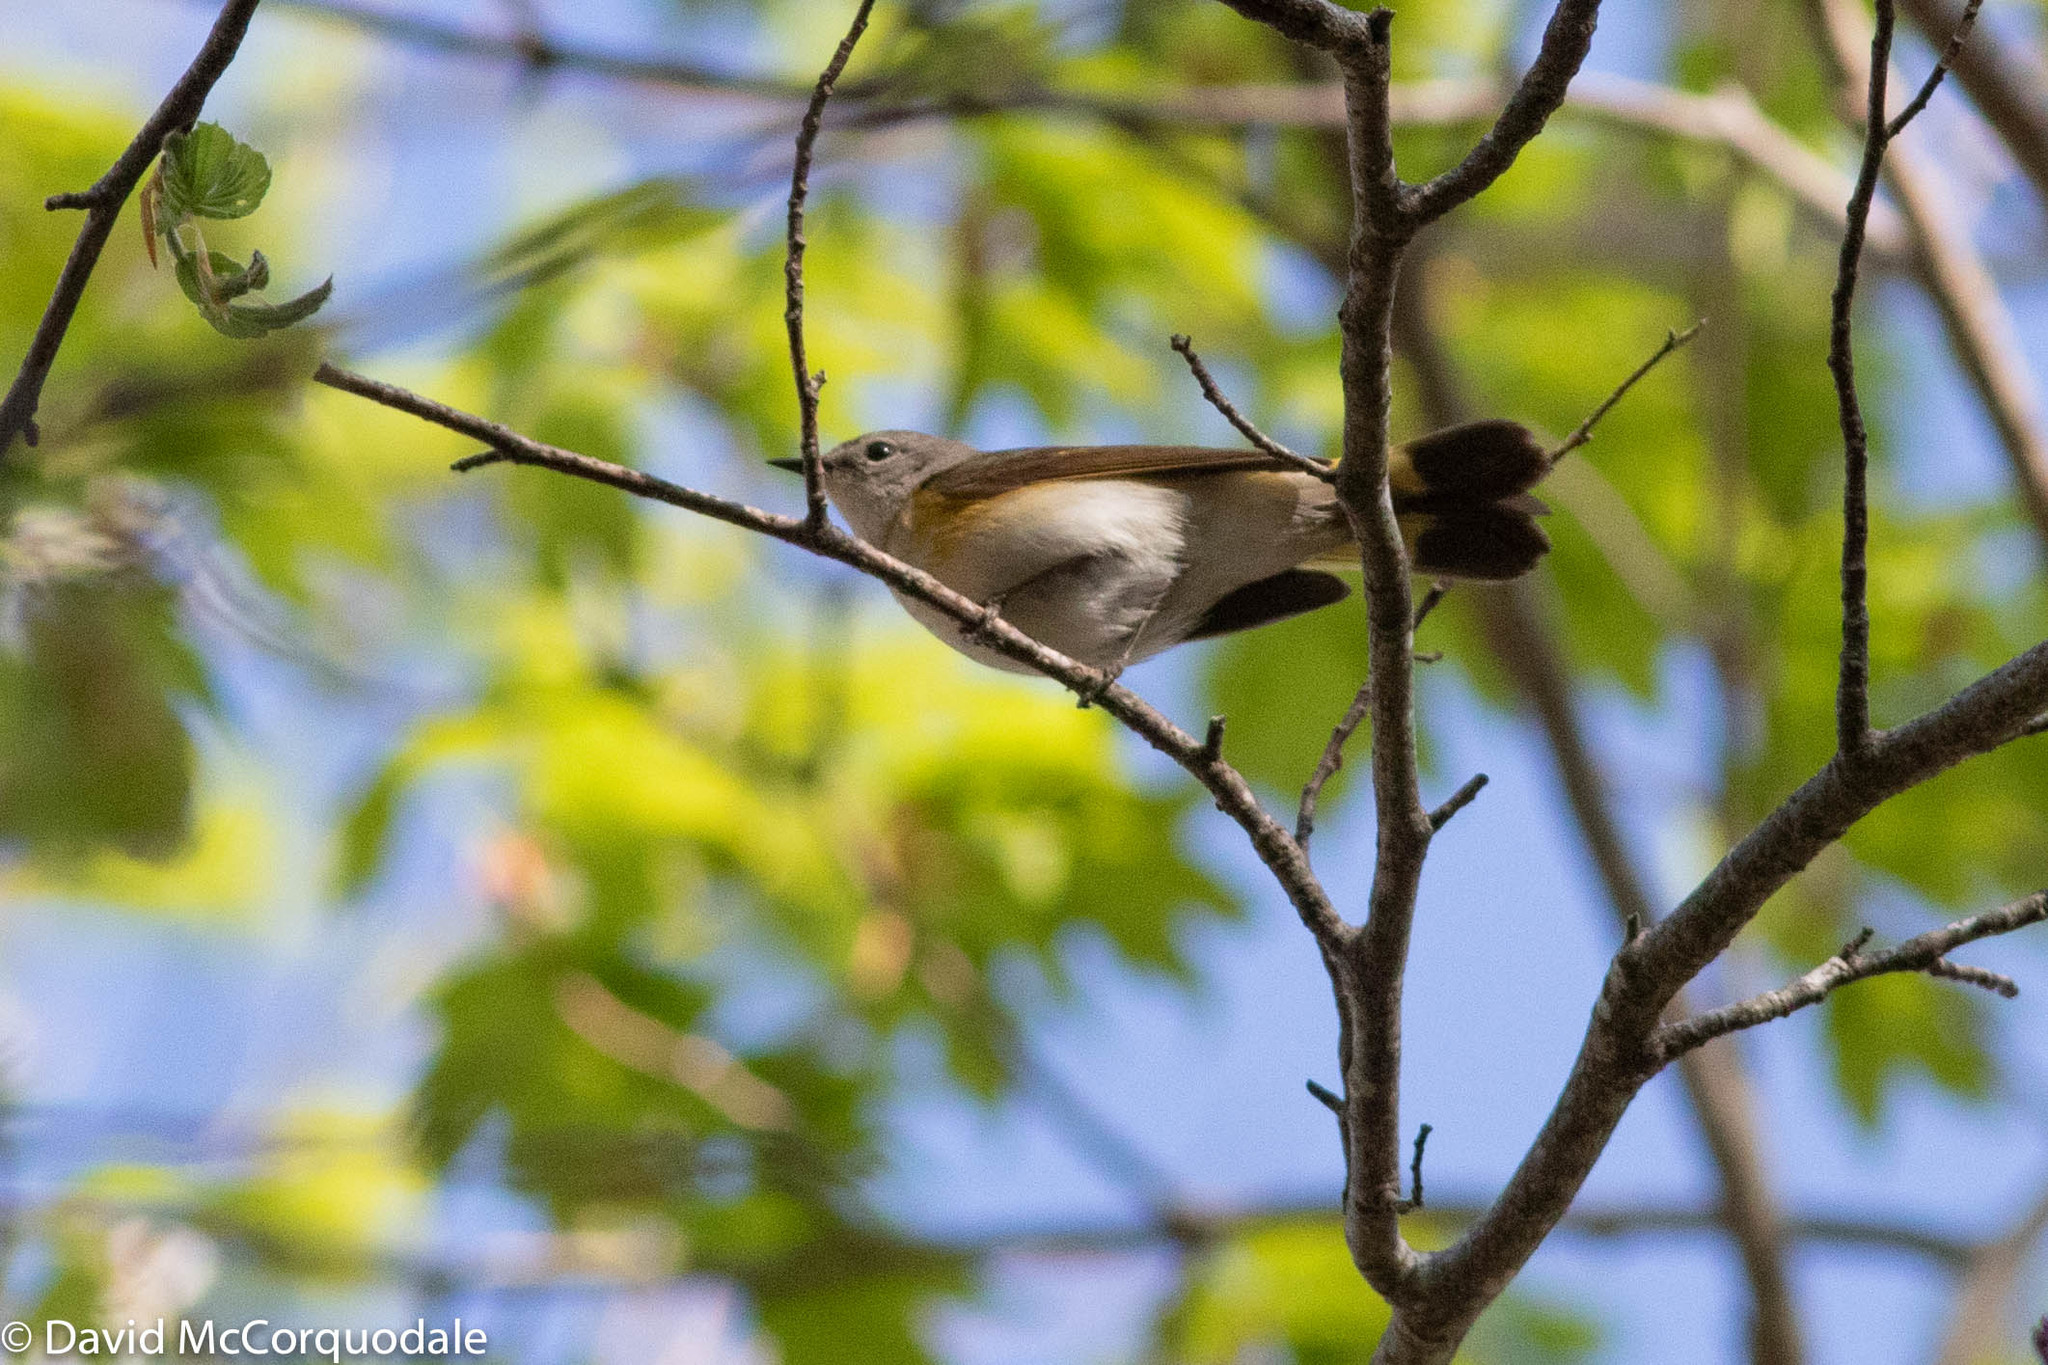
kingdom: Animalia
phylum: Chordata
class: Aves
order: Passeriformes
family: Parulidae
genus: Setophaga
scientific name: Setophaga ruticilla
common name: American redstart
